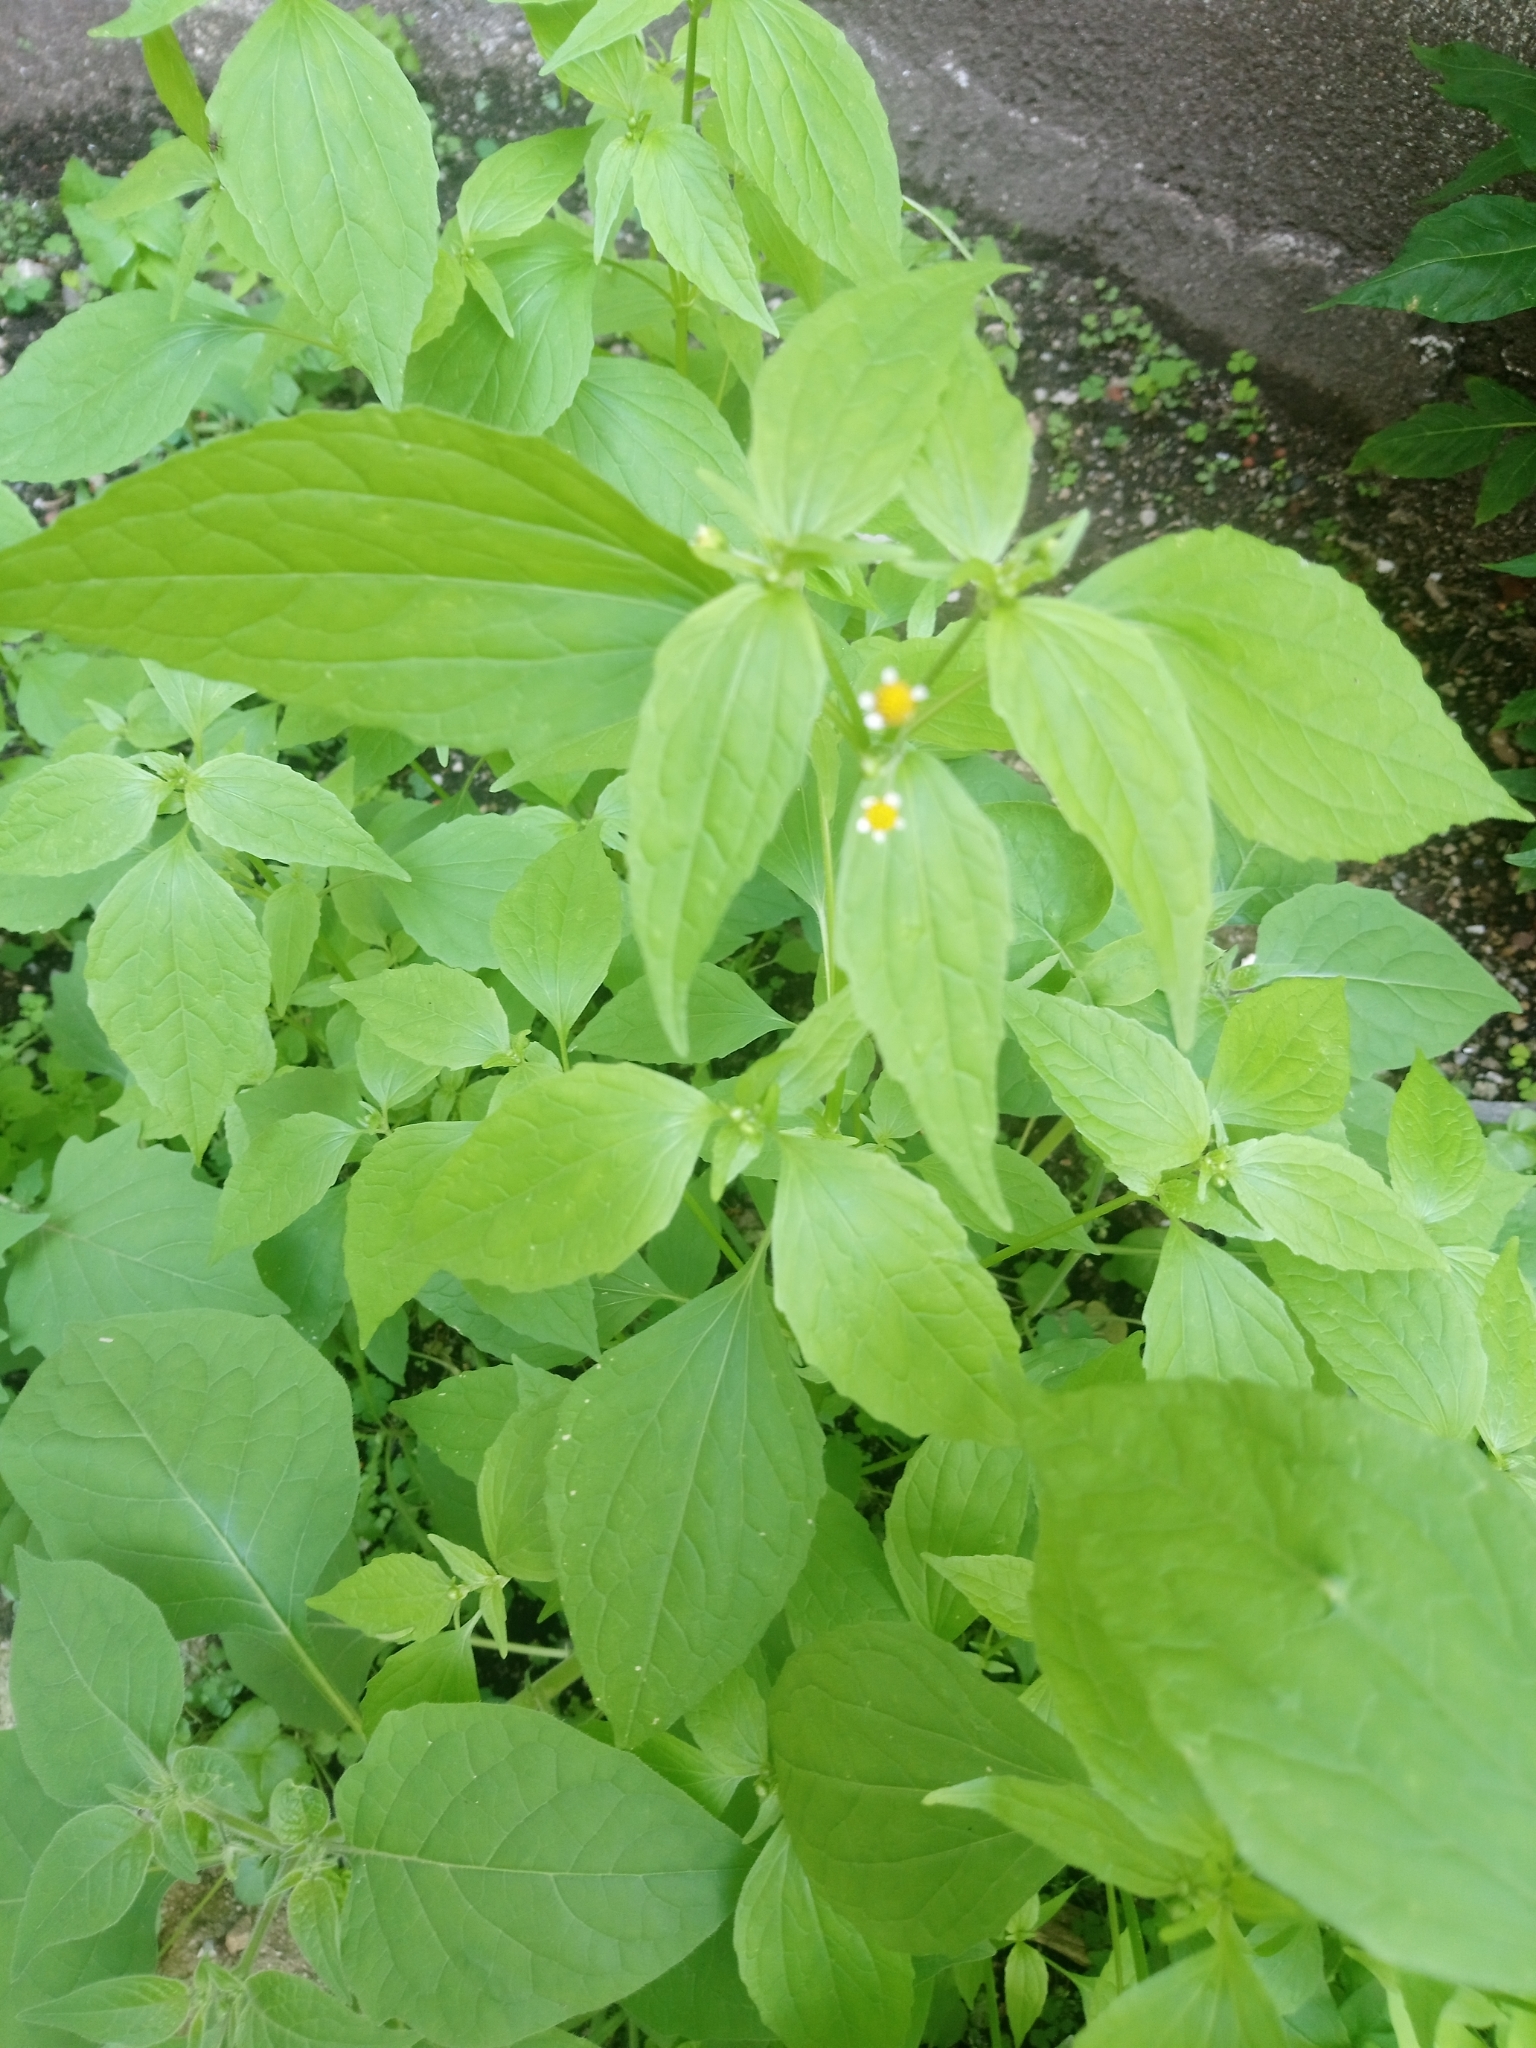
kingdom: Plantae
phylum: Tracheophyta
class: Magnoliopsida
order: Asterales
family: Asteraceae
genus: Galinsoga
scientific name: Galinsoga parviflora
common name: Gallant soldier
